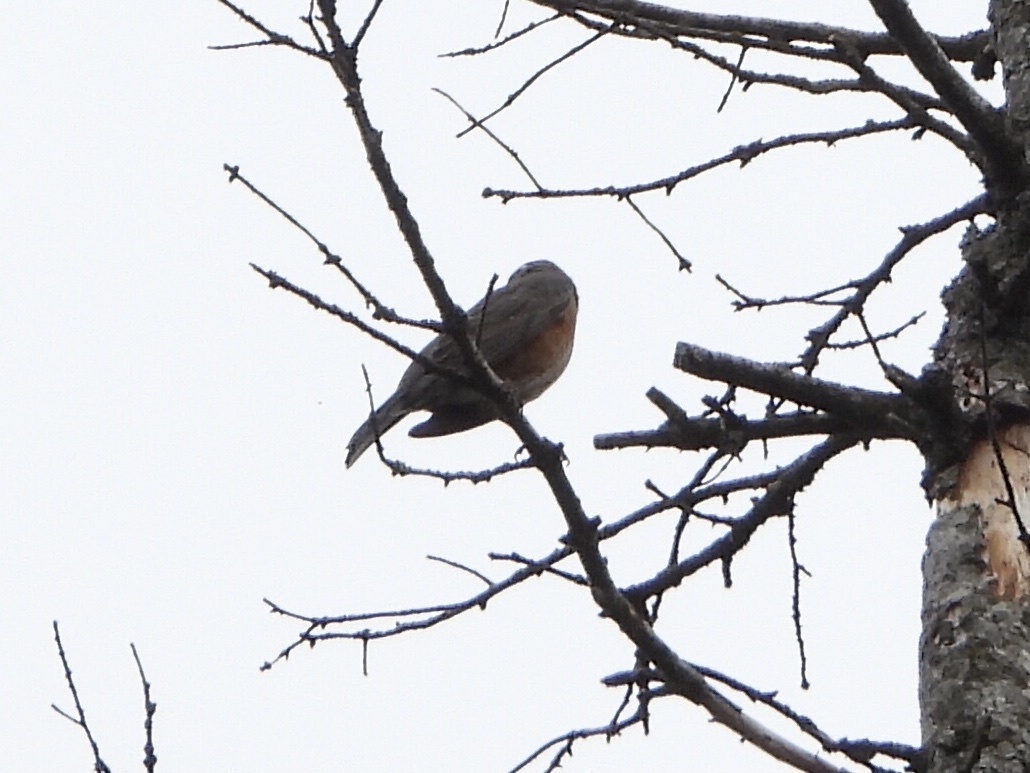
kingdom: Animalia
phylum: Chordata
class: Aves
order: Passeriformes
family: Turdidae
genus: Turdus
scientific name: Turdus migratorius
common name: American robin
